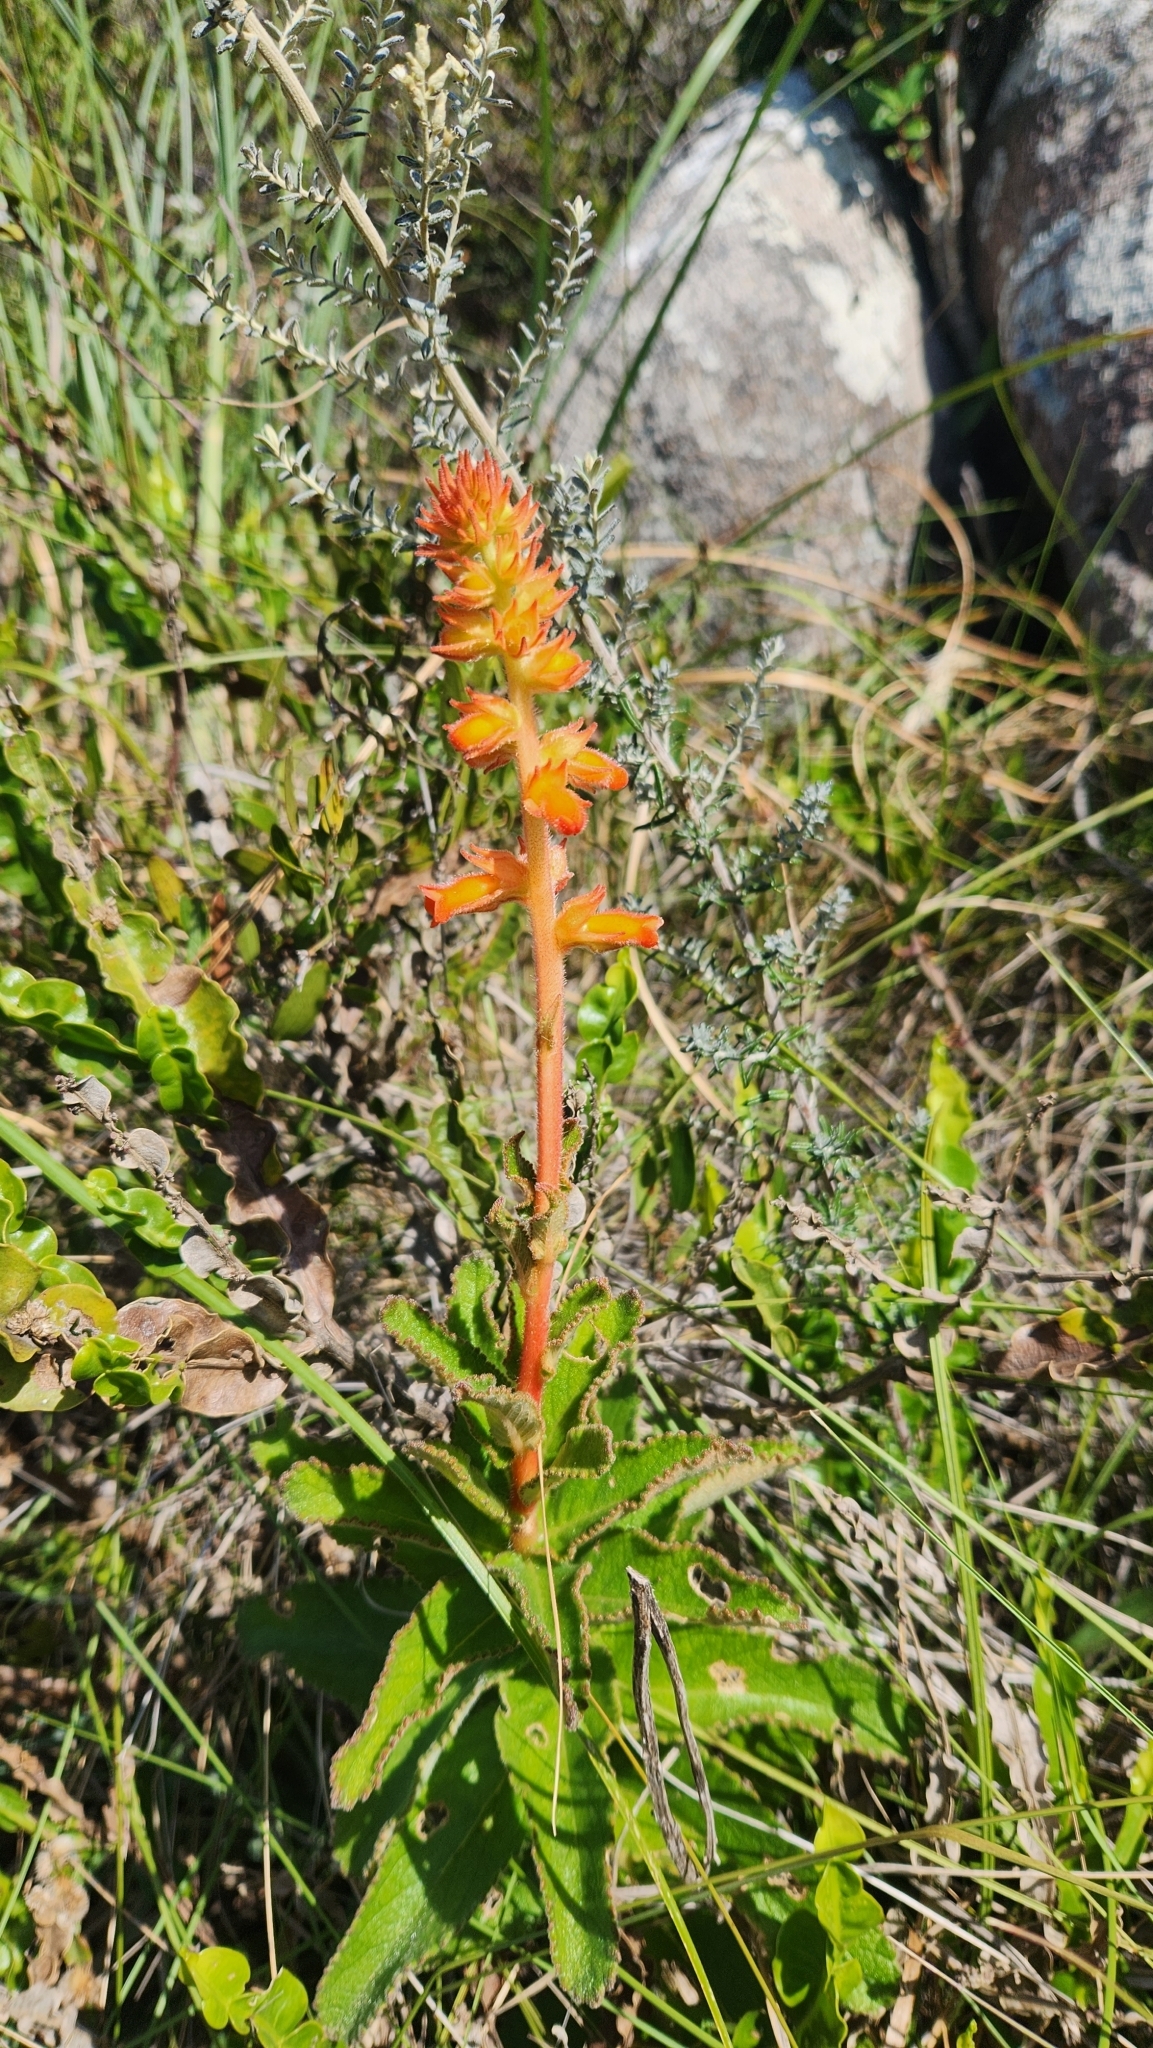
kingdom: Plantae
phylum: Tracheophyta
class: Magnoliopsida
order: Lamiales
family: Gesneriaceae
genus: Sinningia
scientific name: Sinningia allagophylla
